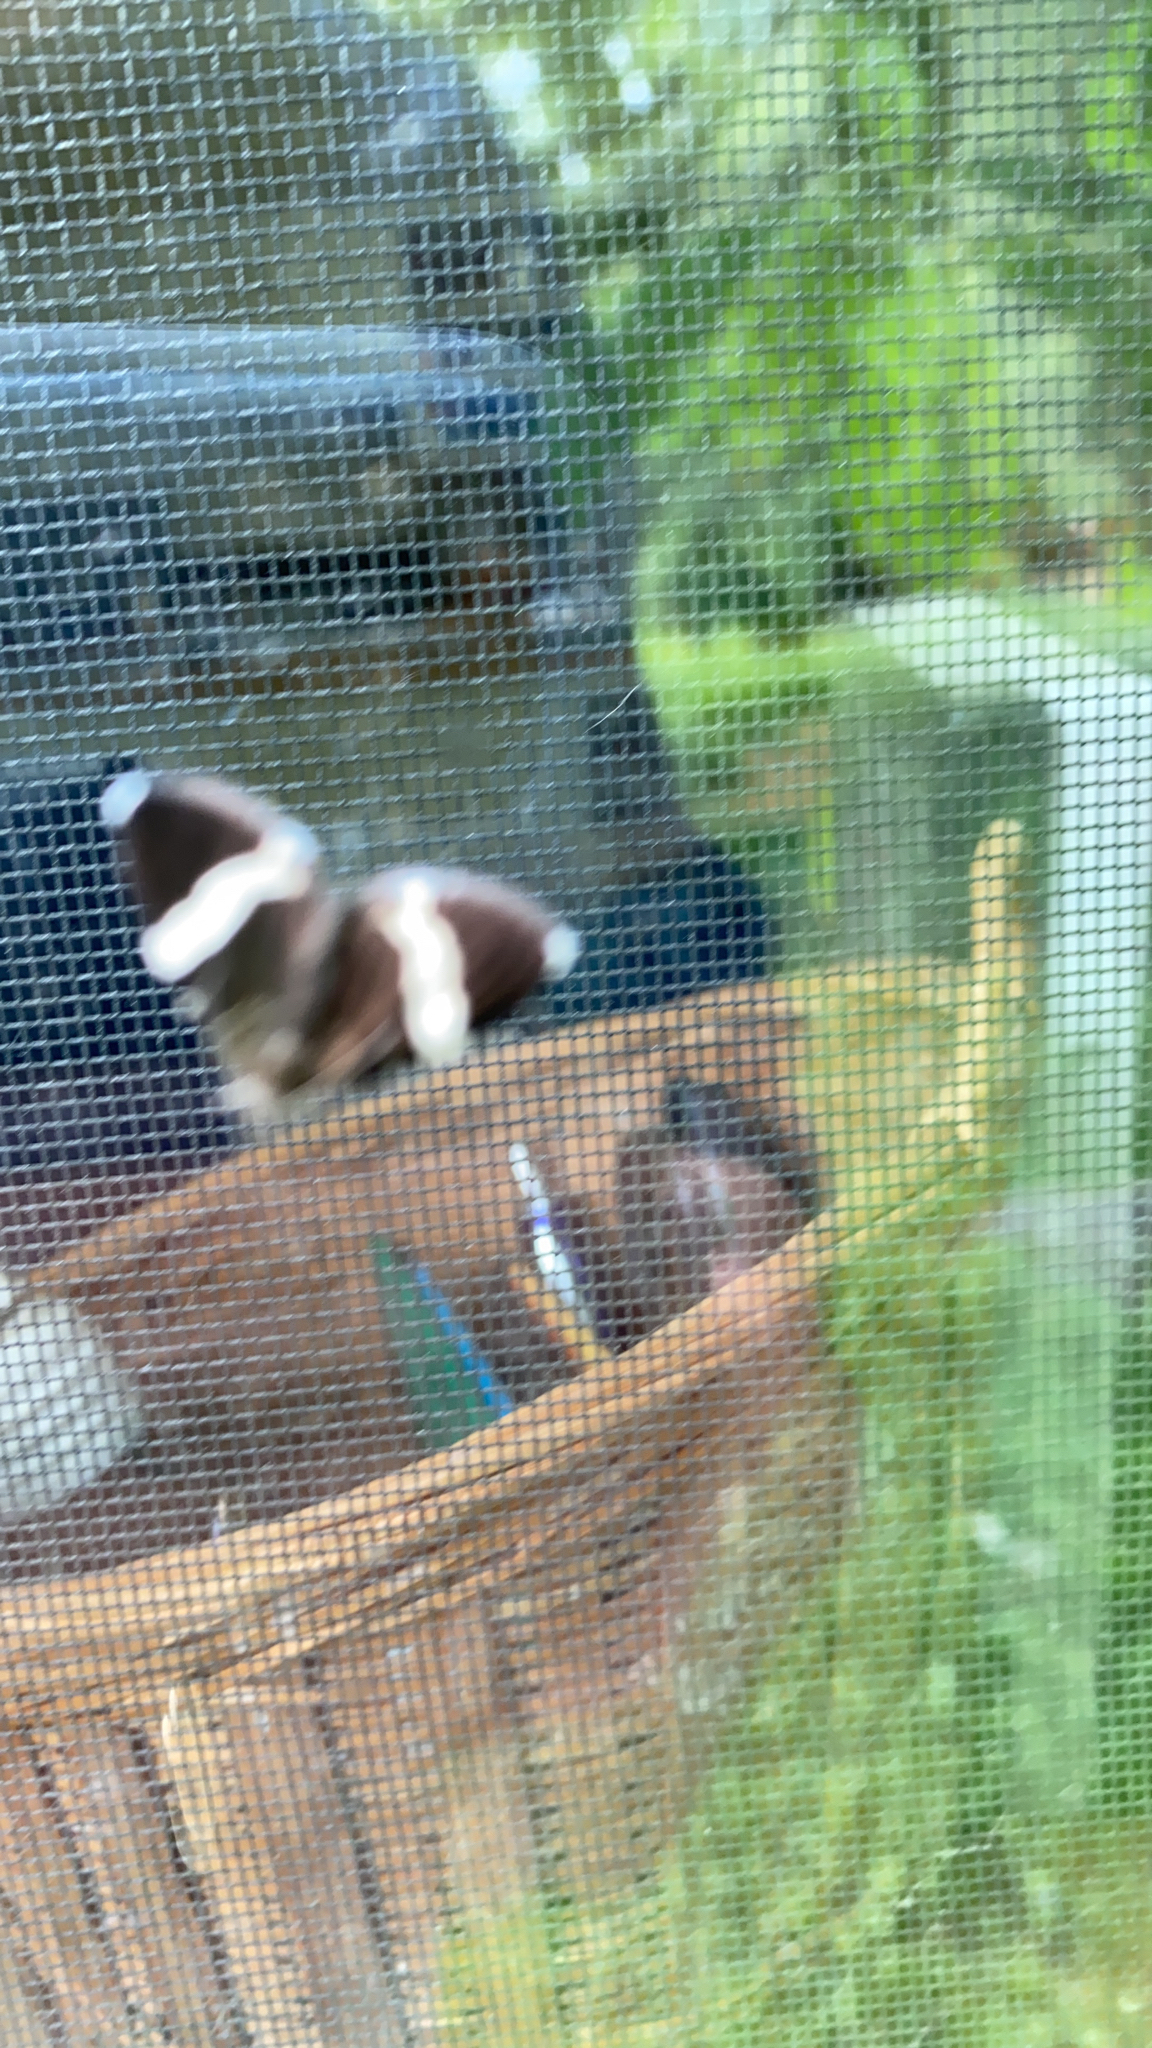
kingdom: Animalia
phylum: Arthropoda
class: Insecta
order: Lepidoptera
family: Geometridae
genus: Trichodezia
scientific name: Trichodezia albovittata
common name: White striped black
